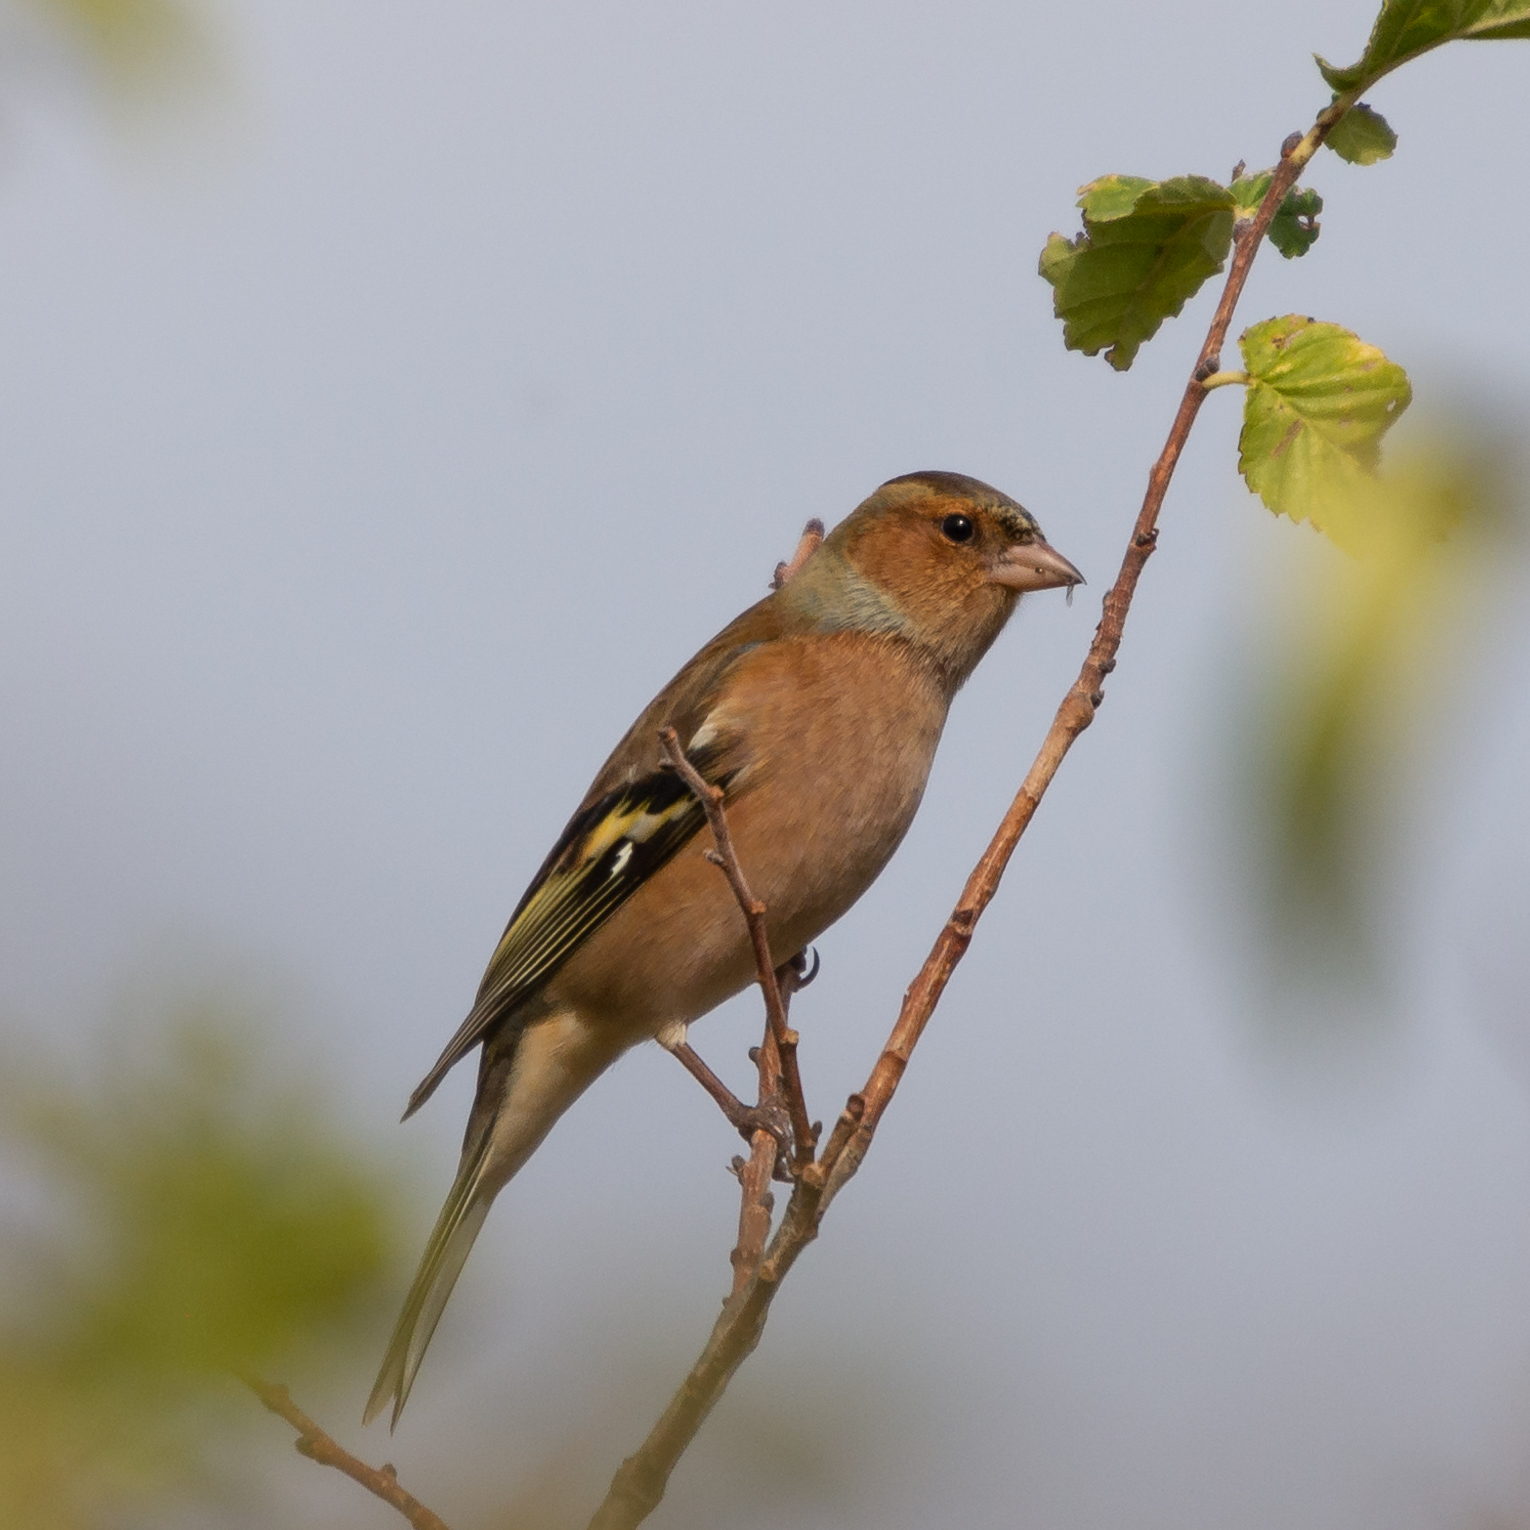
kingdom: Animalia
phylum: Chordata
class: Aves
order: Passeriformes
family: Fringillidae
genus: Fringilla
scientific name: Fringilla coelebs
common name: Common chaffinch
